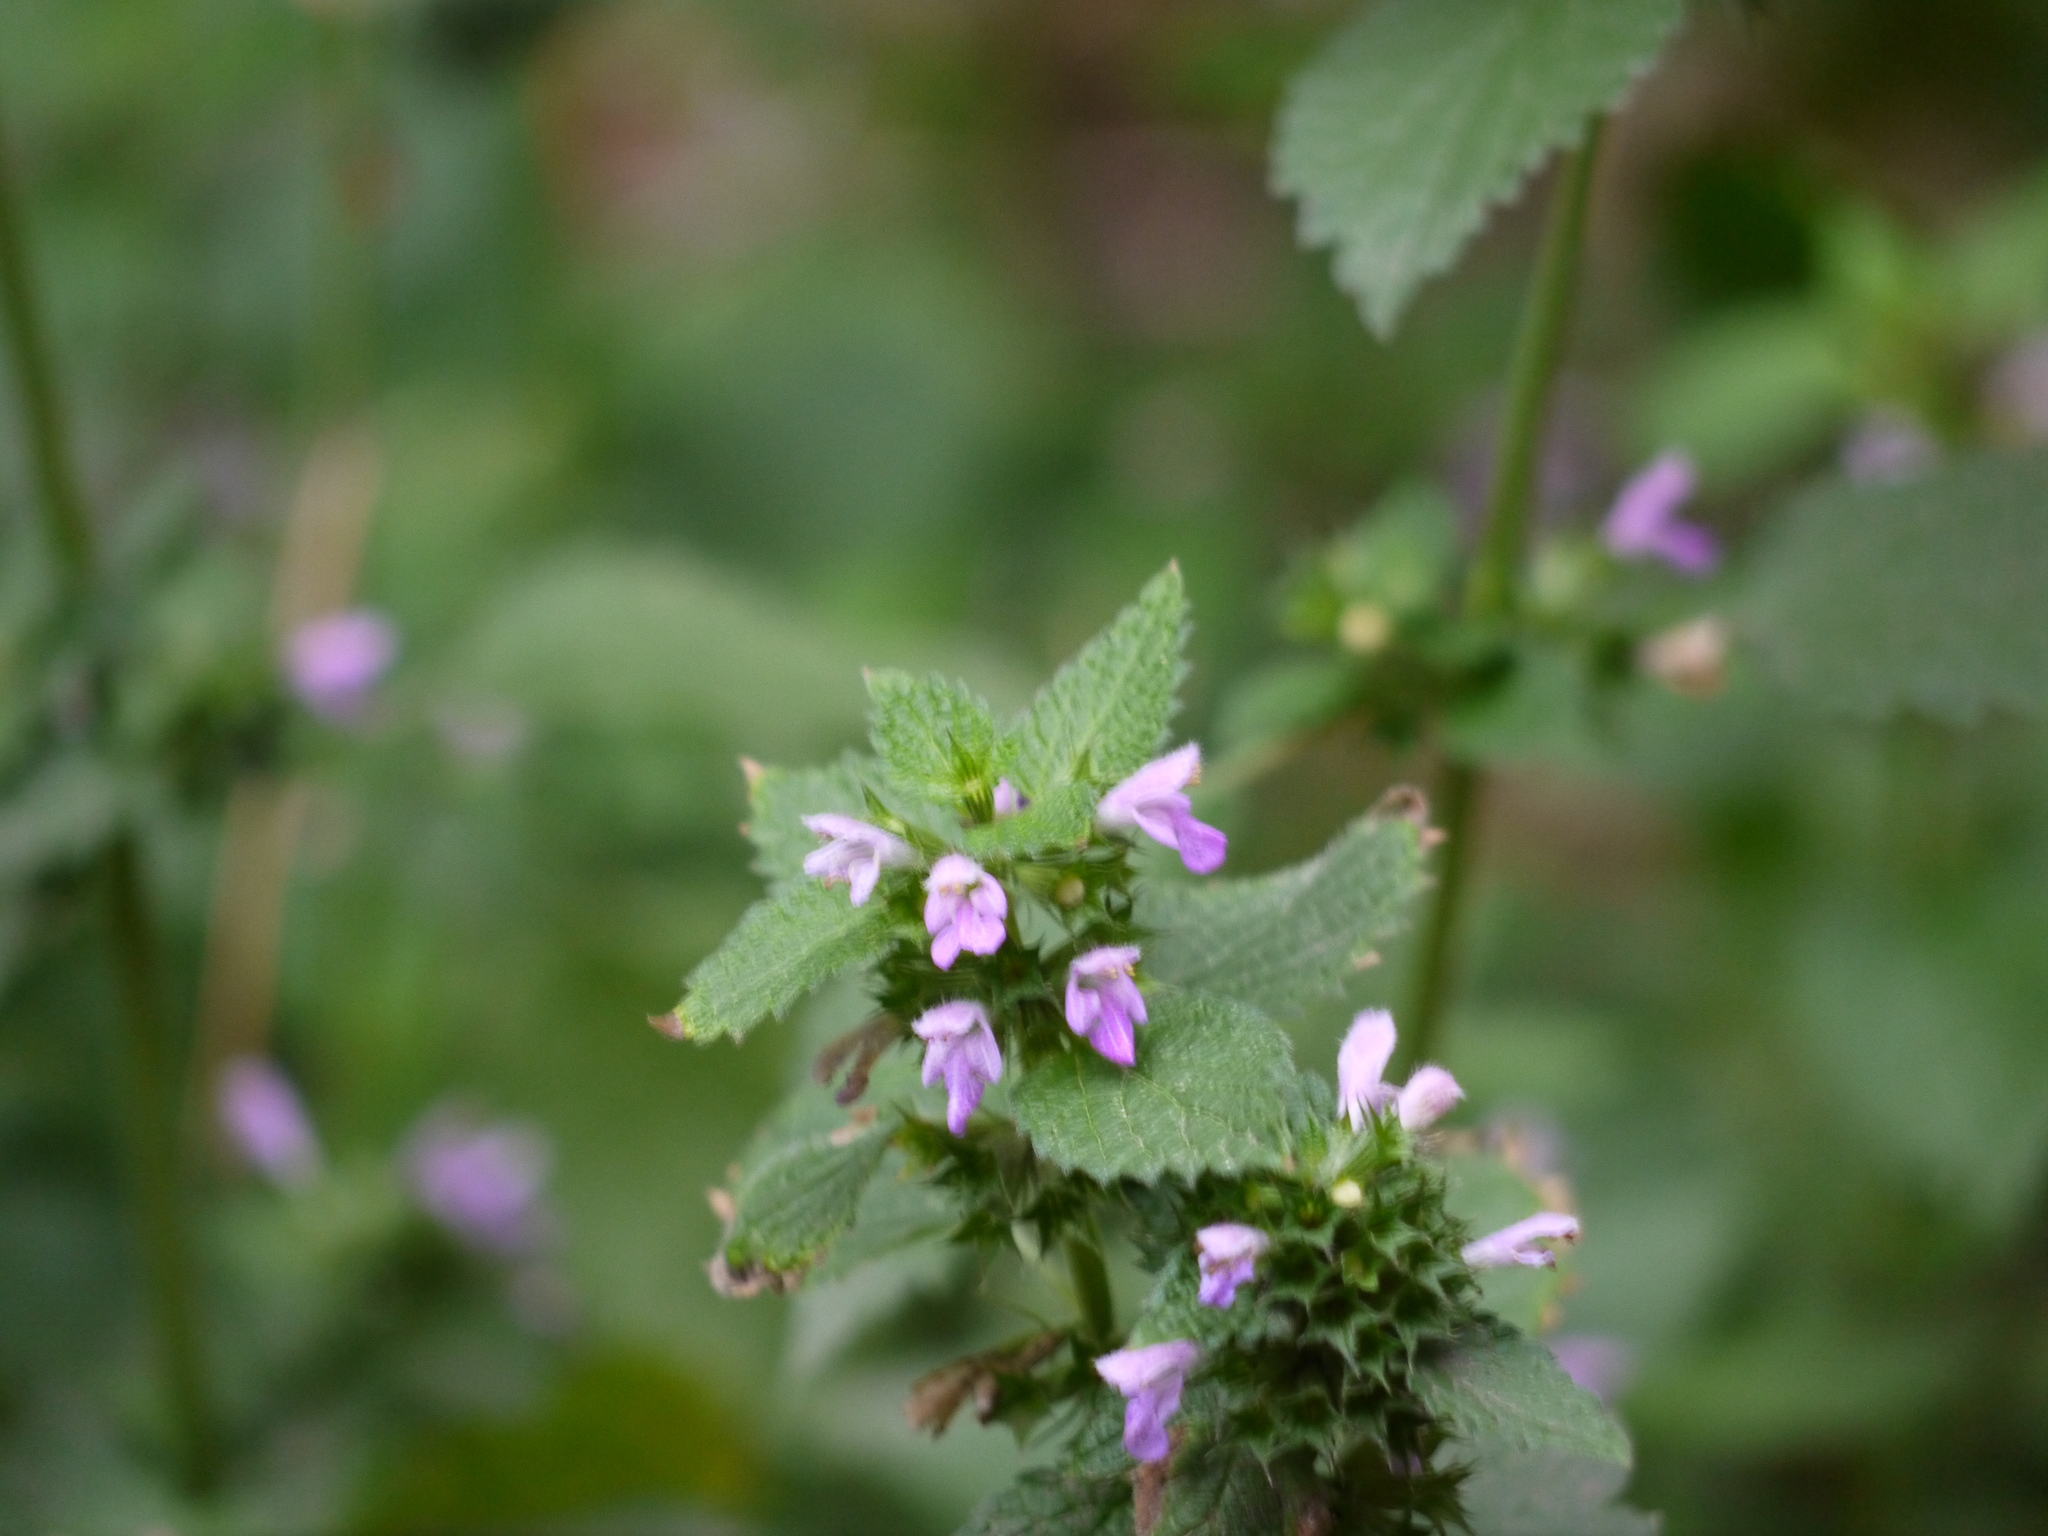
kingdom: Plantae
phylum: Tracheophyta
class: Magnoliopsida
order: Lamiales
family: Lamiaceae
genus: Ballota
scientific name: Ballota nigra
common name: Black horehound
